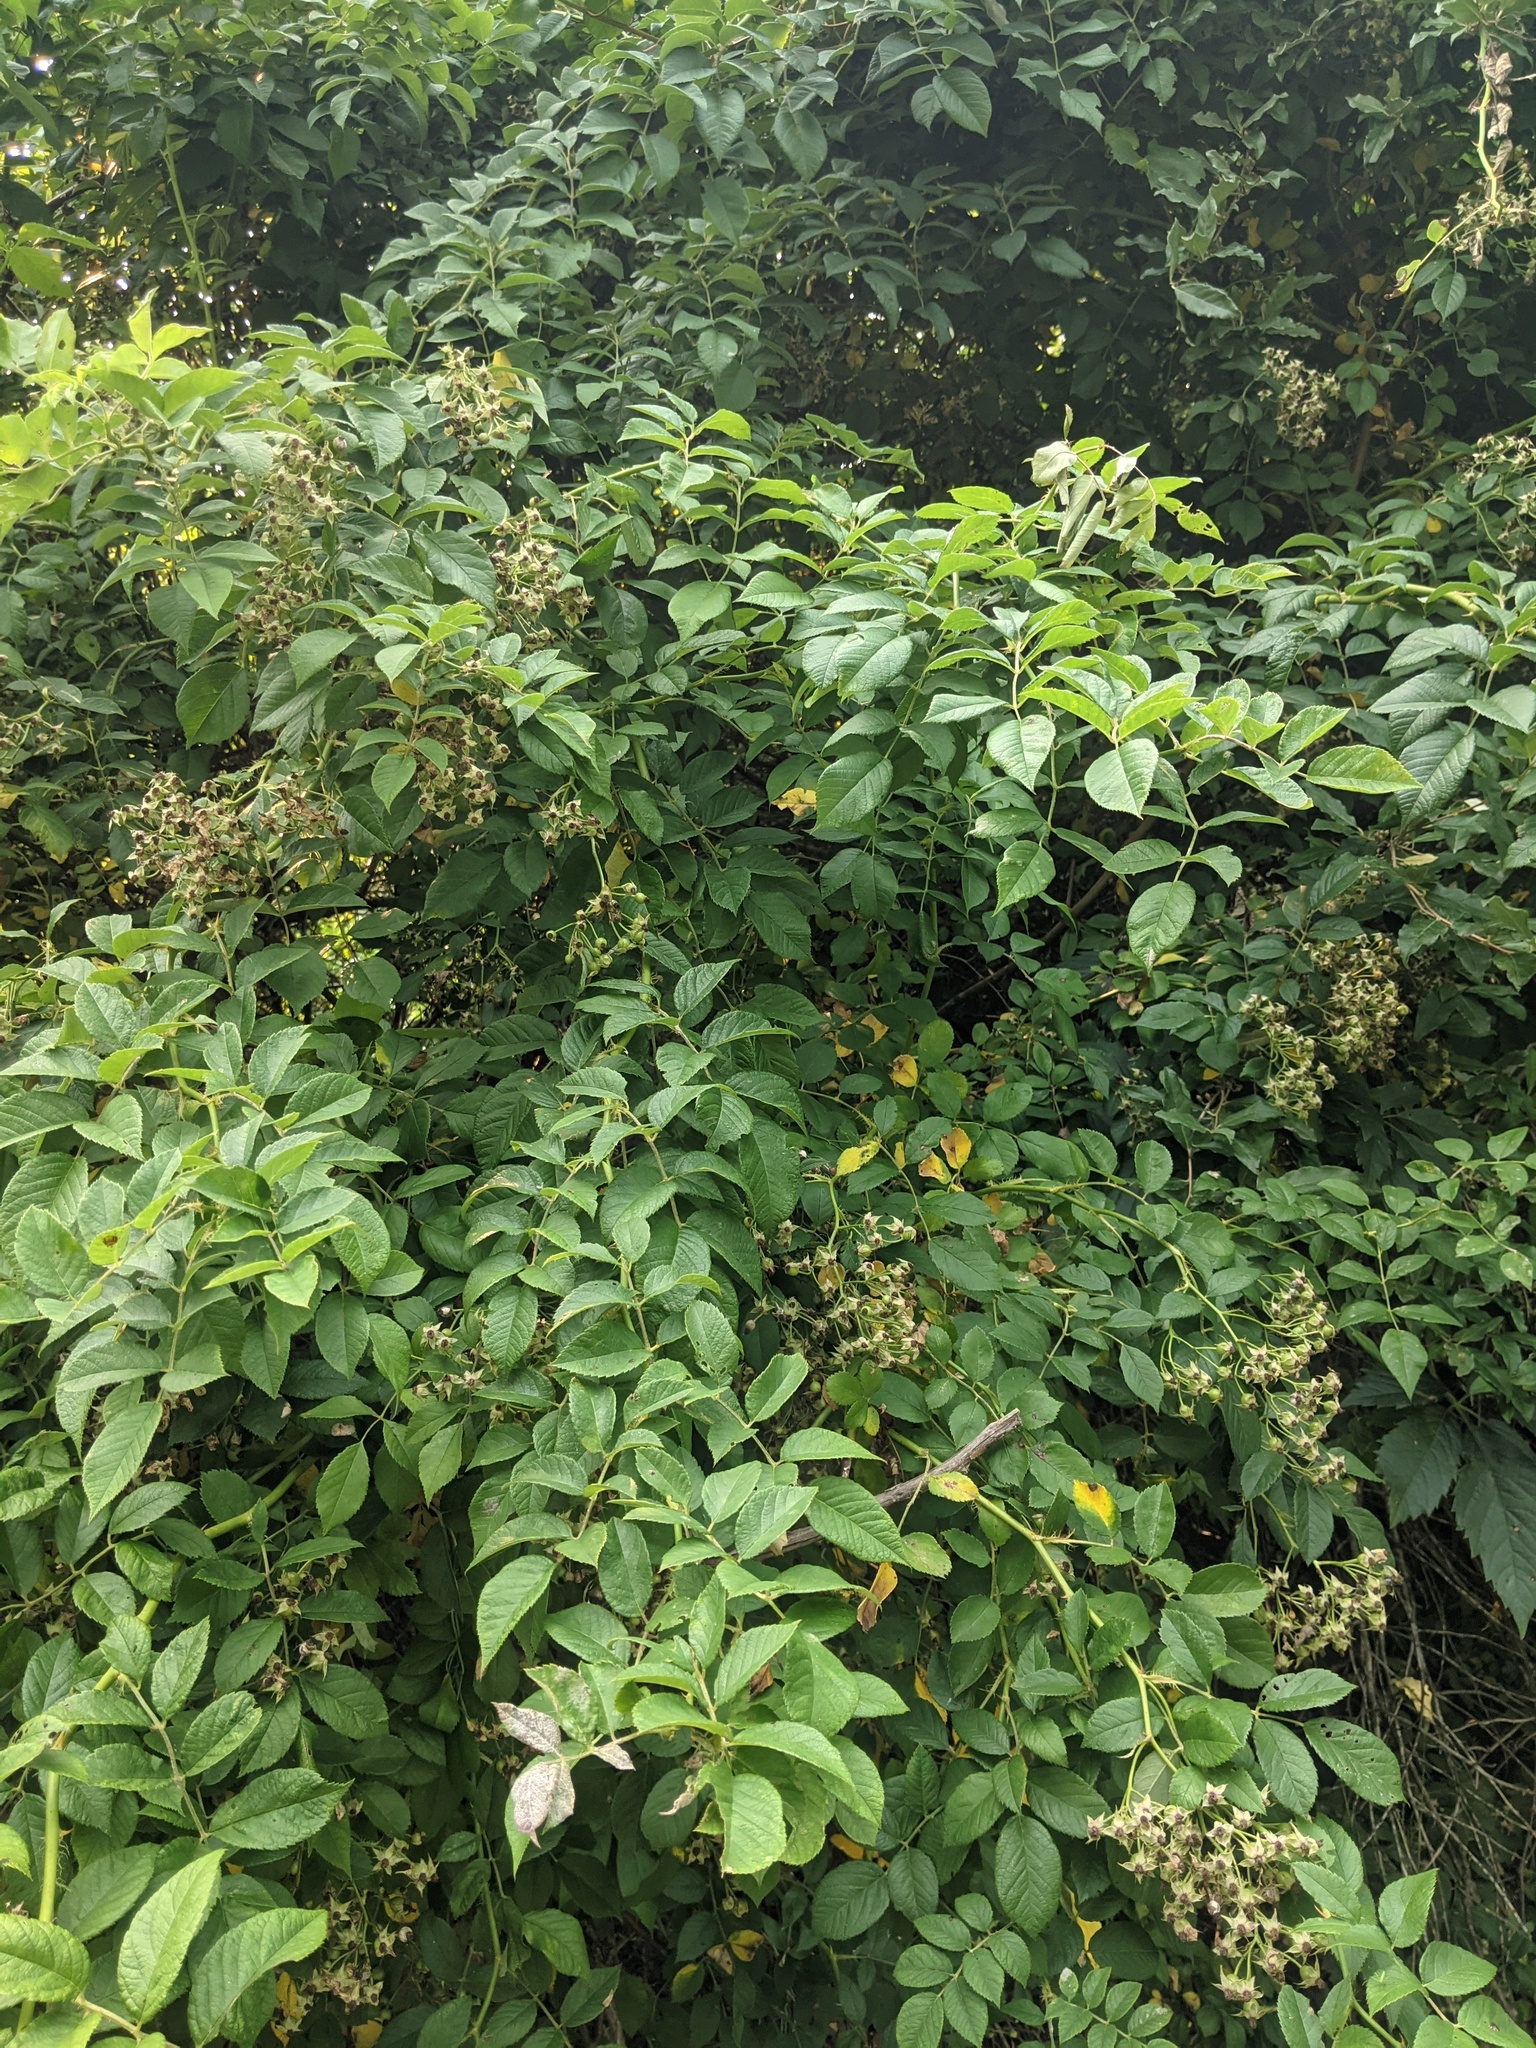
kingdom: Plantae
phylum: Tracheophyta
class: Magnoliopsida
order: Rosales
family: Rosaceae
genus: Rosa
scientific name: Rosa multiflora
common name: Multiflora rose
